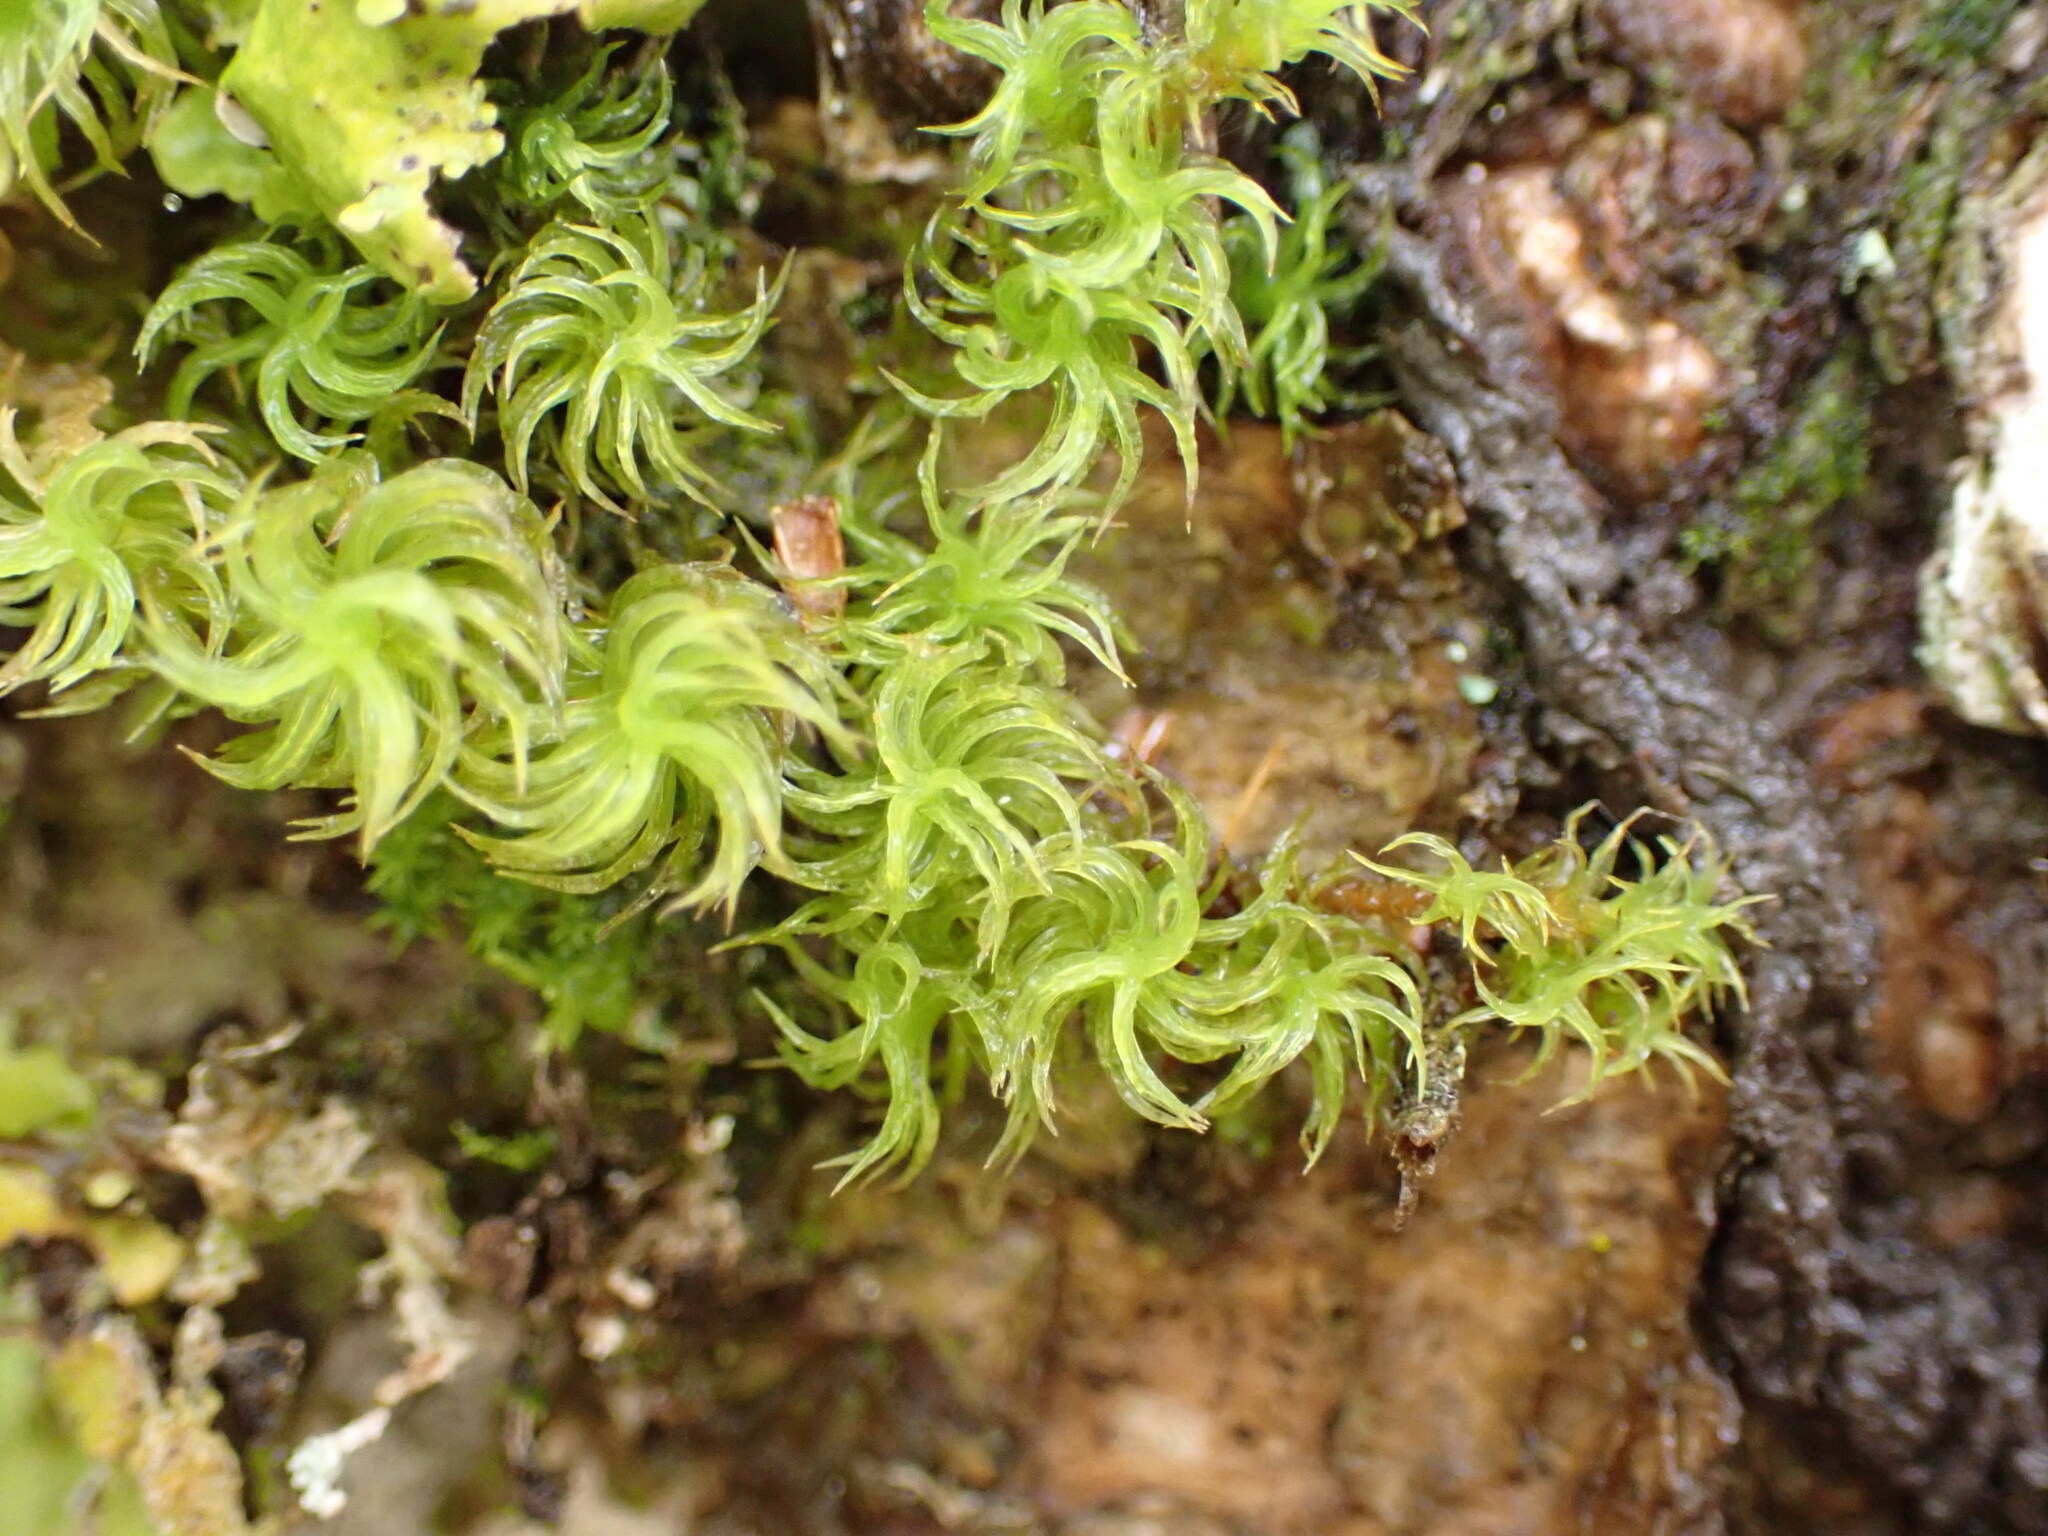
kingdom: Plantae
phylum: Bryophyta
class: Bryopsida
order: Dicranales
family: Dicranaceae
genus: Mesotus
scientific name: Mesotus celatus
